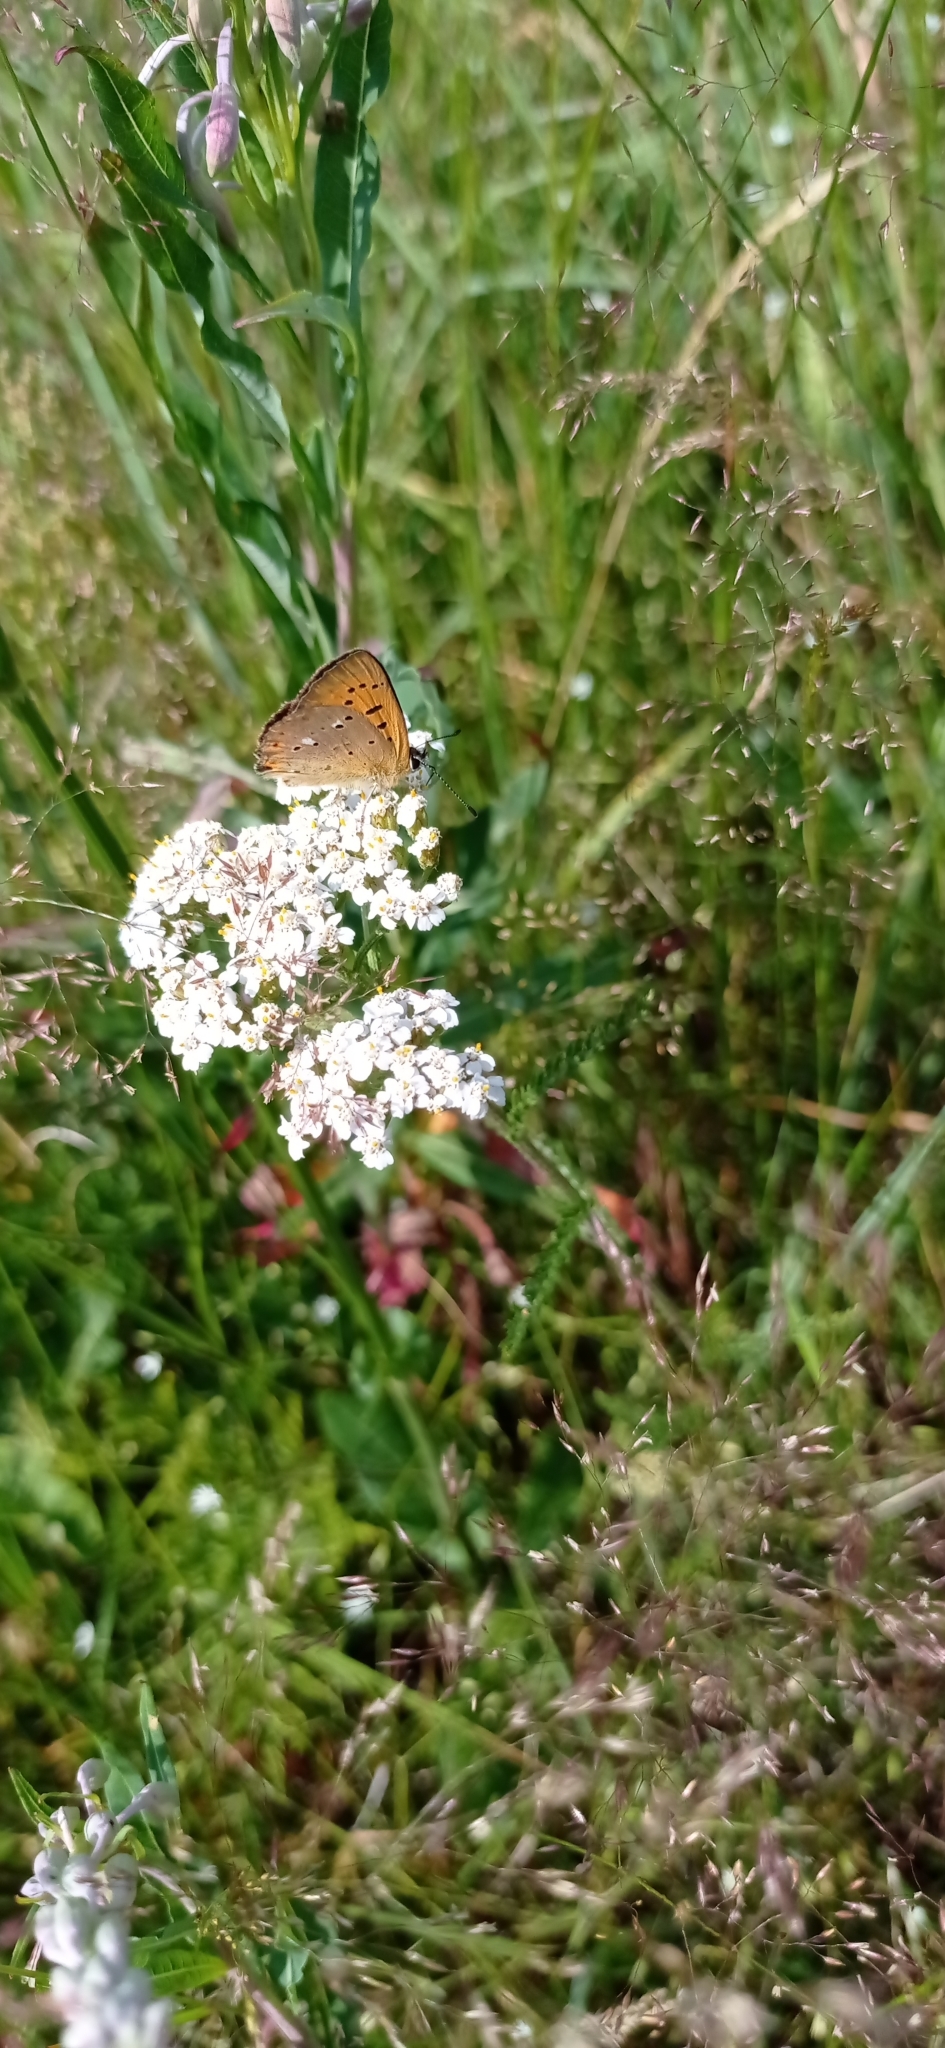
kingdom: Animalia
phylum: Arthropoda
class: Insecta
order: Lepidoptera
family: Lycaenidae
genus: Lycaena
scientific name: Lycaena virgaureae
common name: Scarce copper
